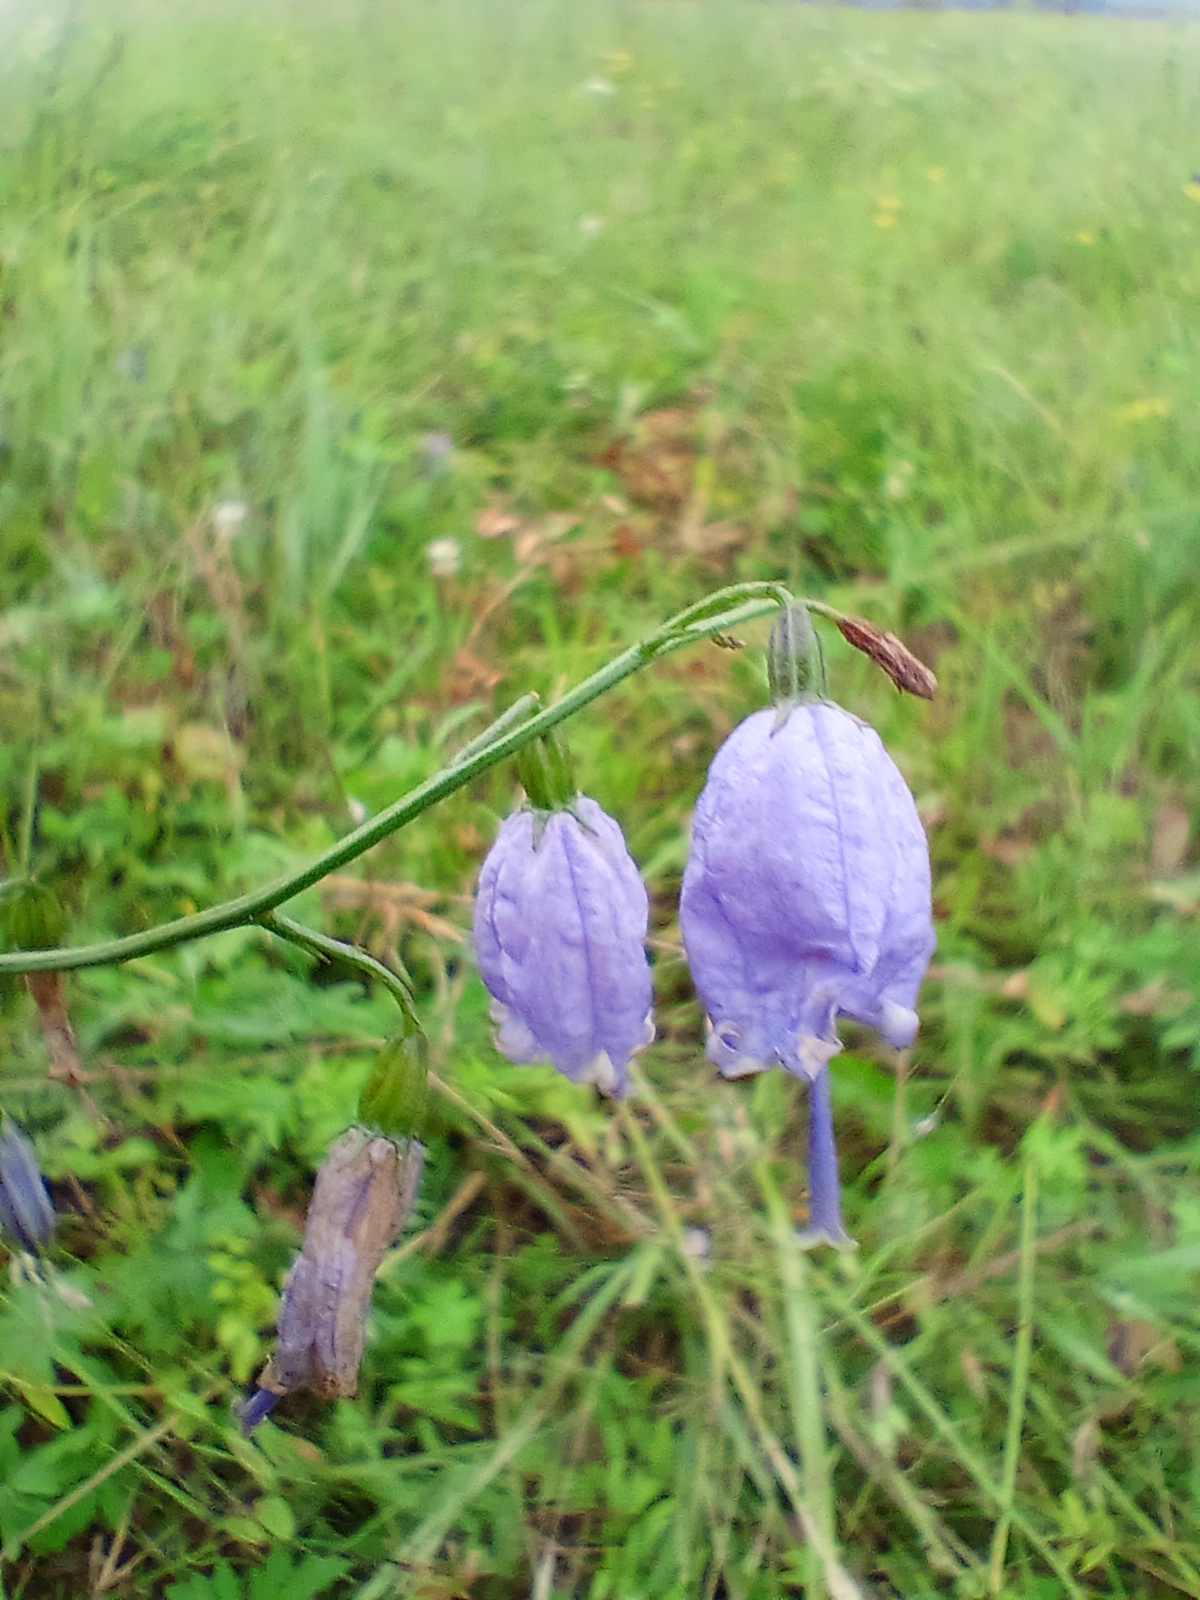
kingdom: Plantae
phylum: Tracheophyta
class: Magnoliopsida
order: Asterales
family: Campanulaceae
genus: Adenophora
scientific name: Adenophora stenanthina
